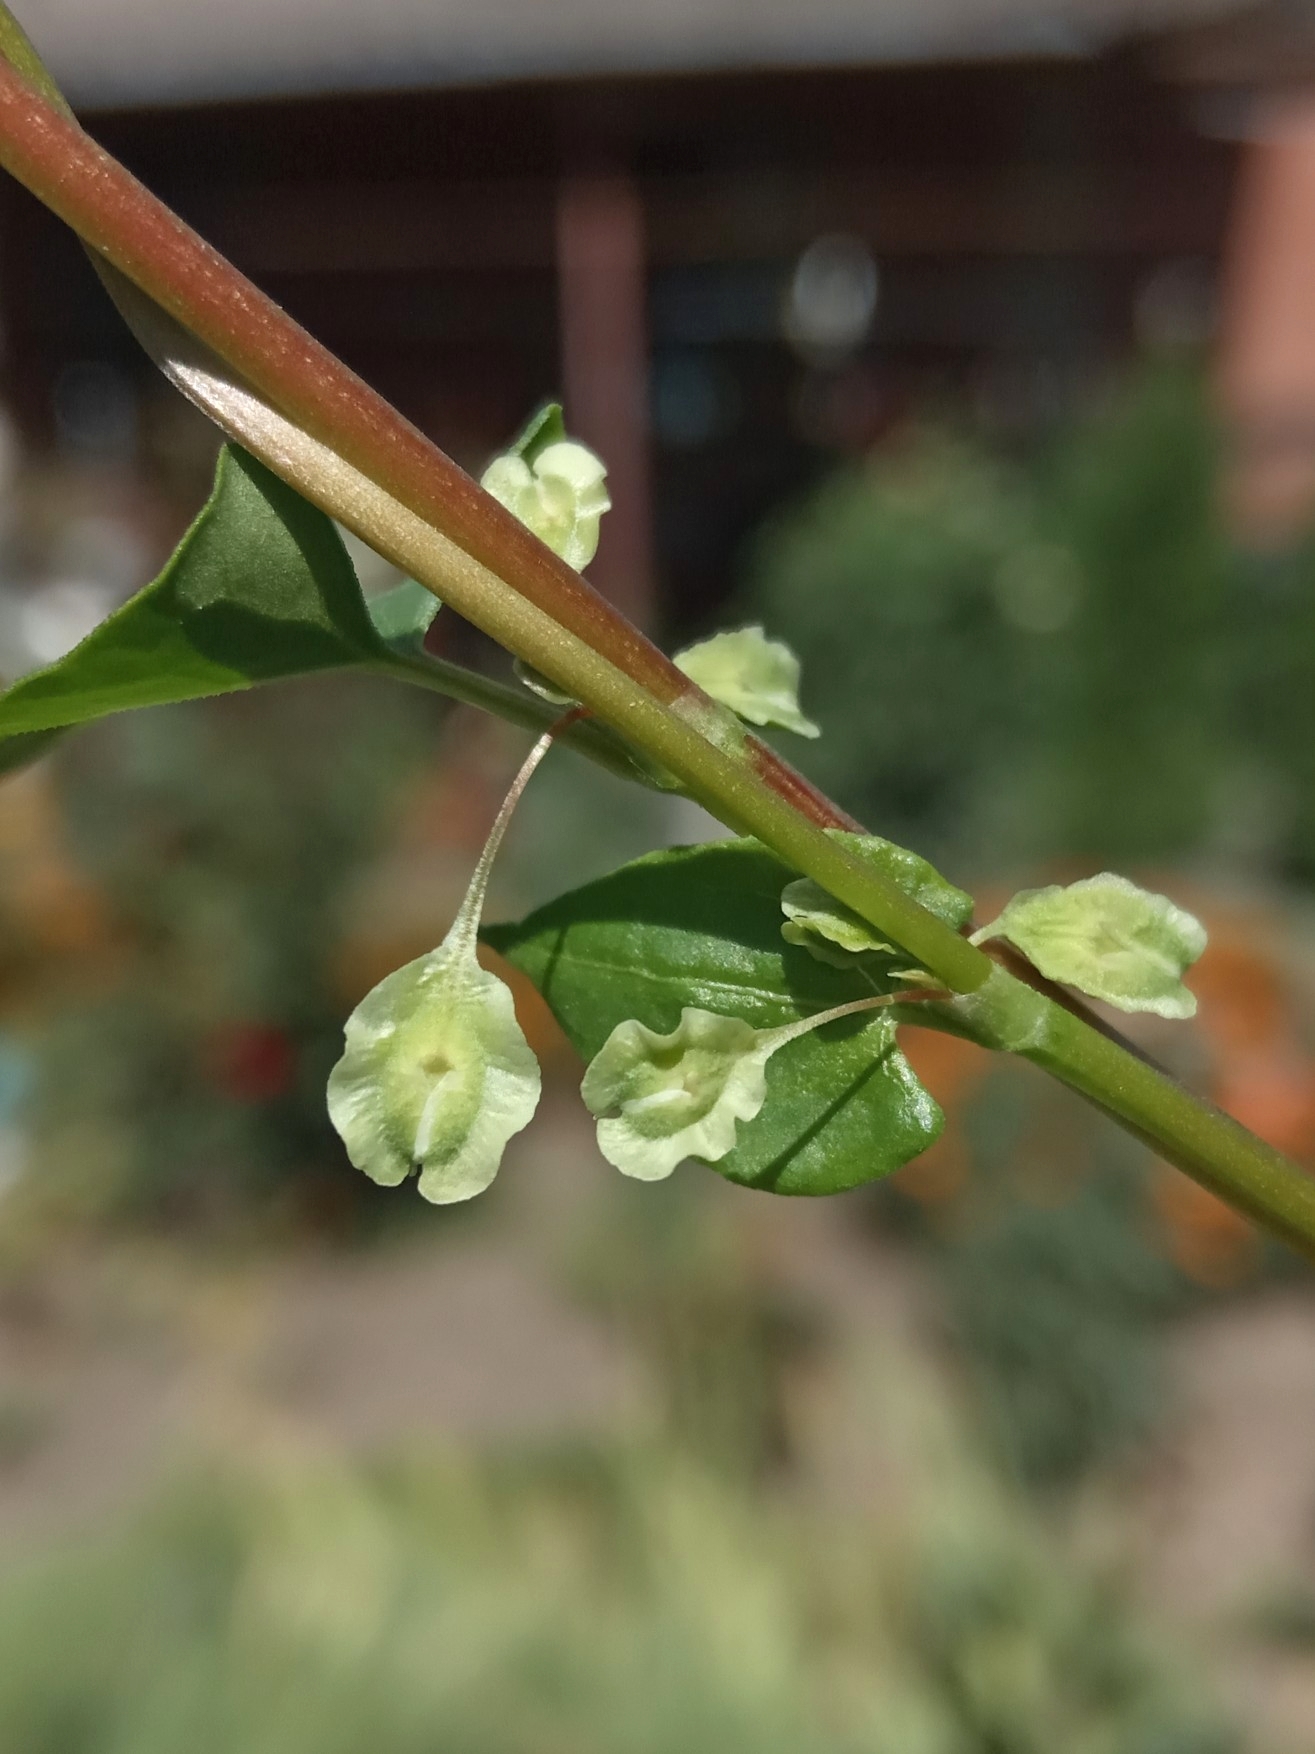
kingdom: Plantae
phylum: Tracheophyta
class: Magnoliopsida
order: Caryophyllales
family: Polygonaceae
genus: Fallopia
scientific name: Fallopia dumetorum
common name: Copse-bindweed
